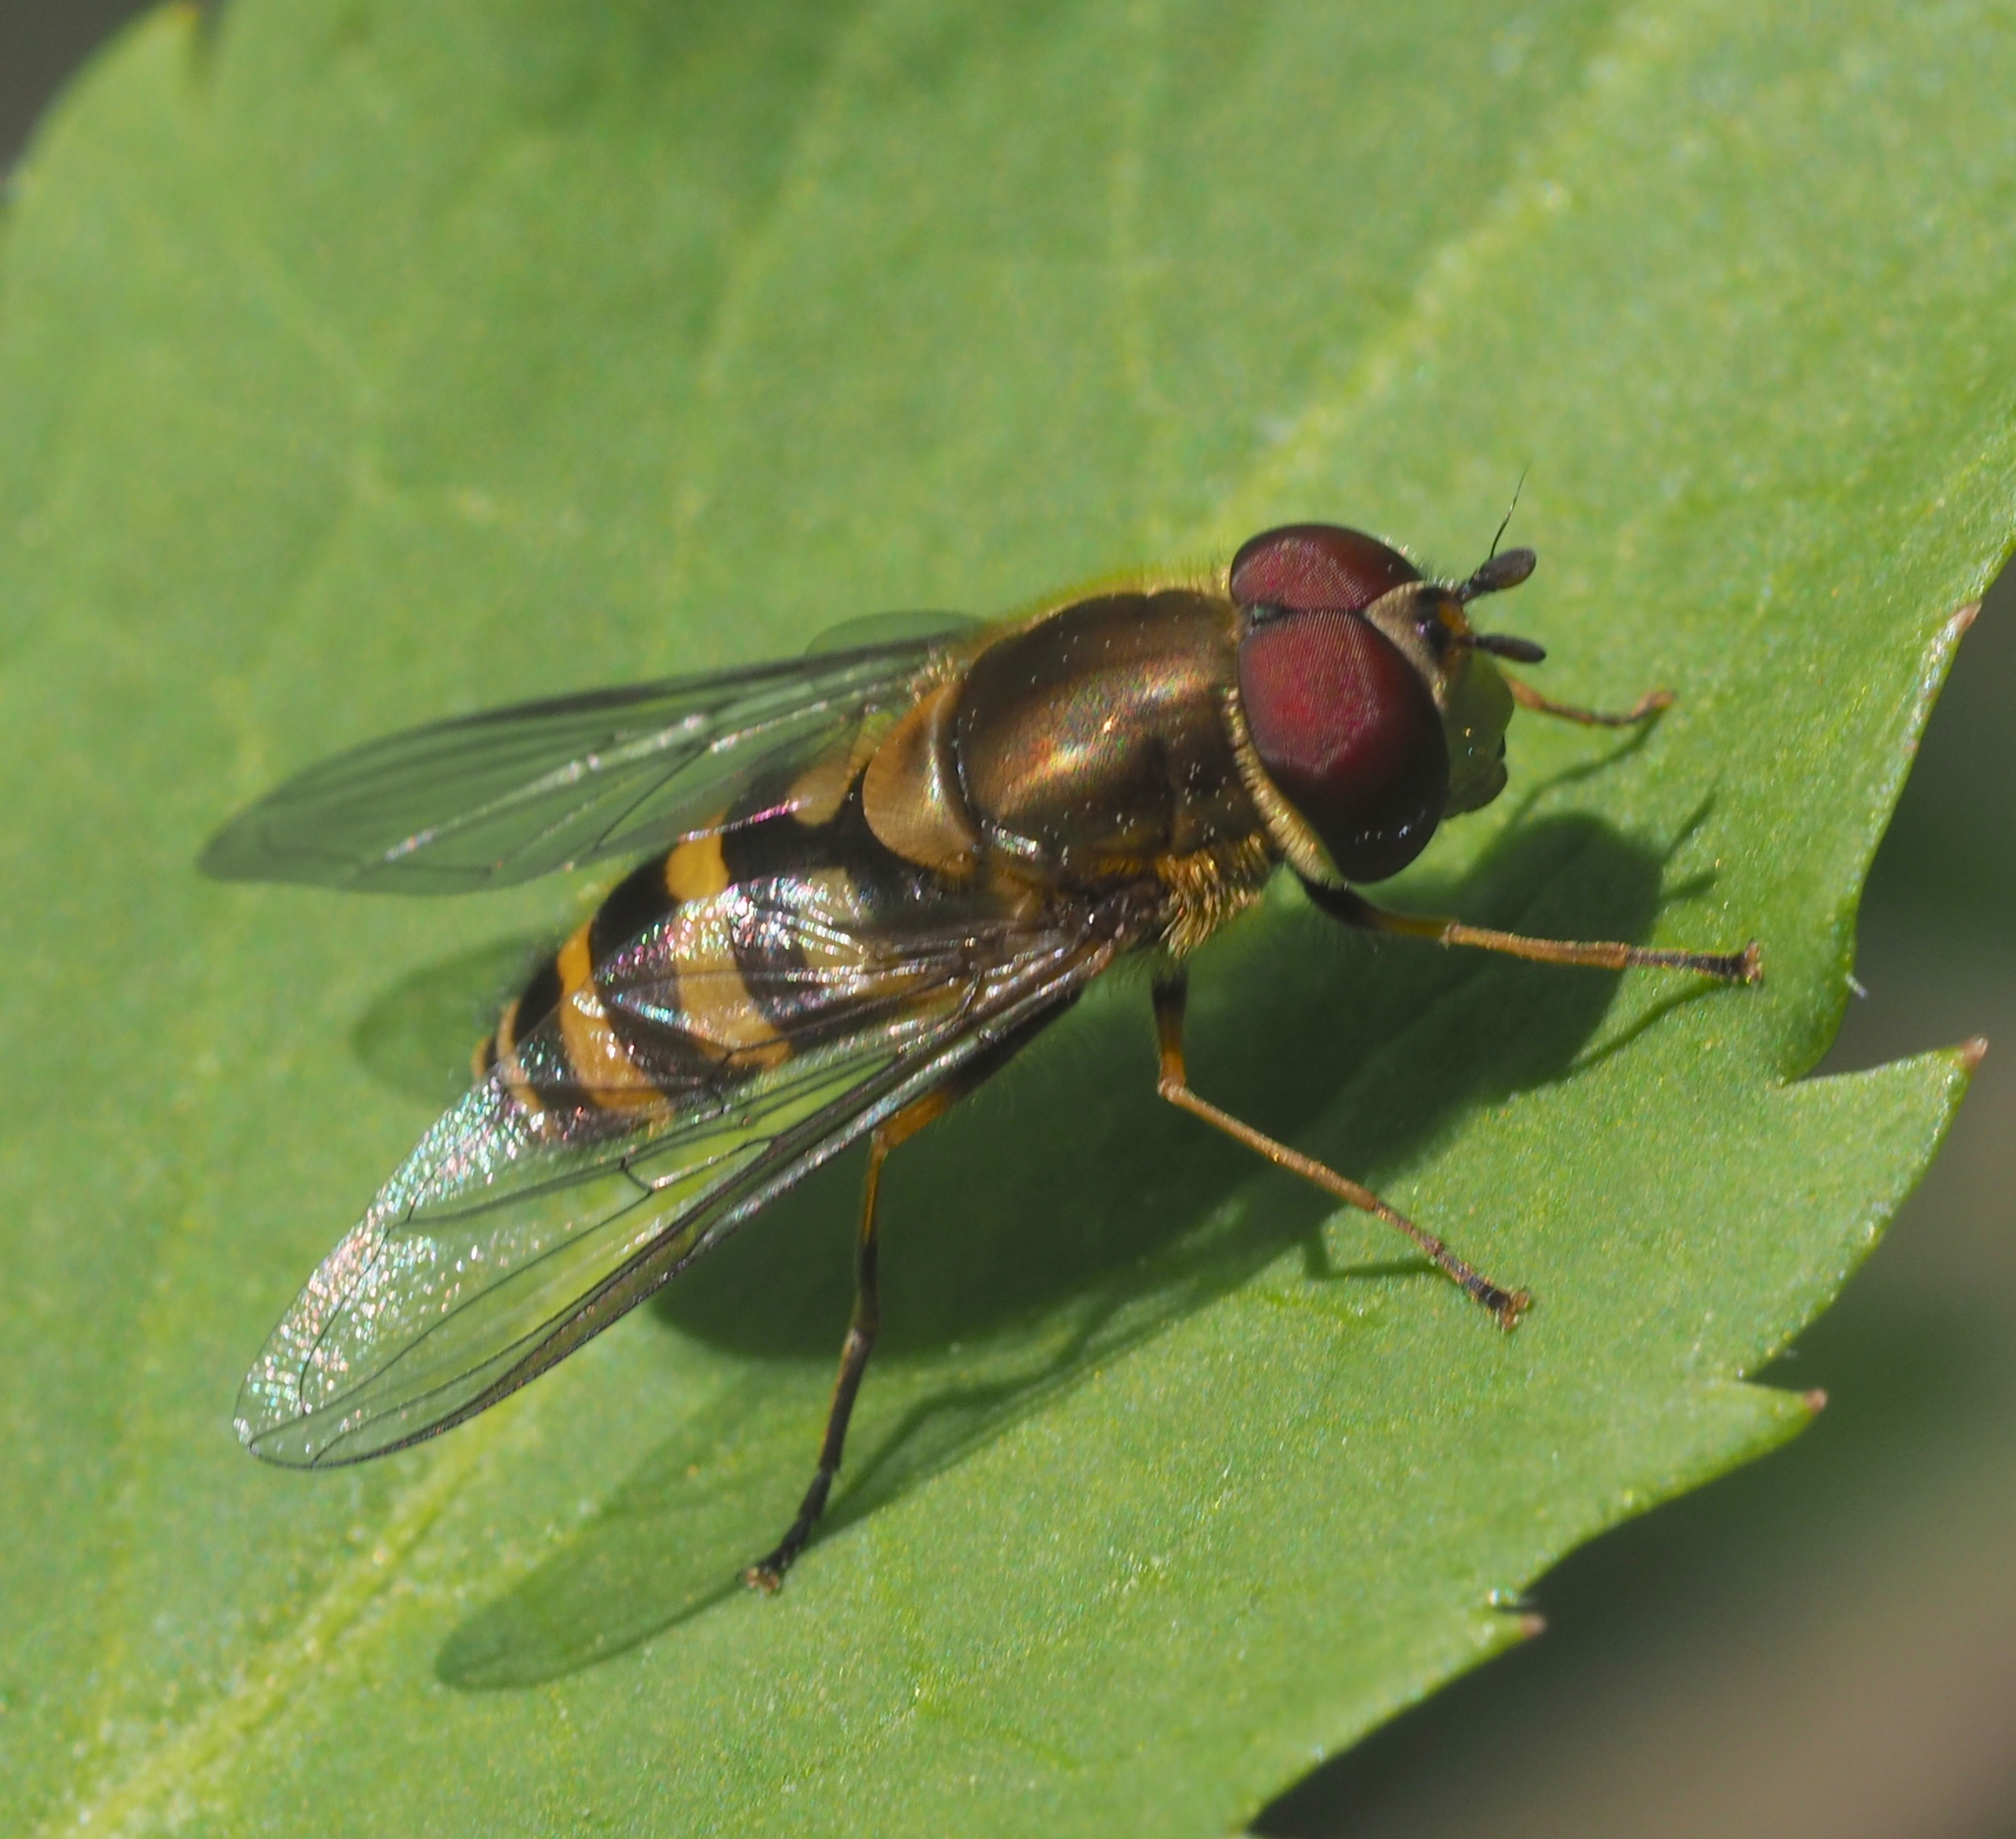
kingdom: Animalia
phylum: Arthropoda
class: Insecta
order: Diptera
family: Syrphidae
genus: Syrphus
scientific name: Syrphus ribesii
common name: Common flower fly
